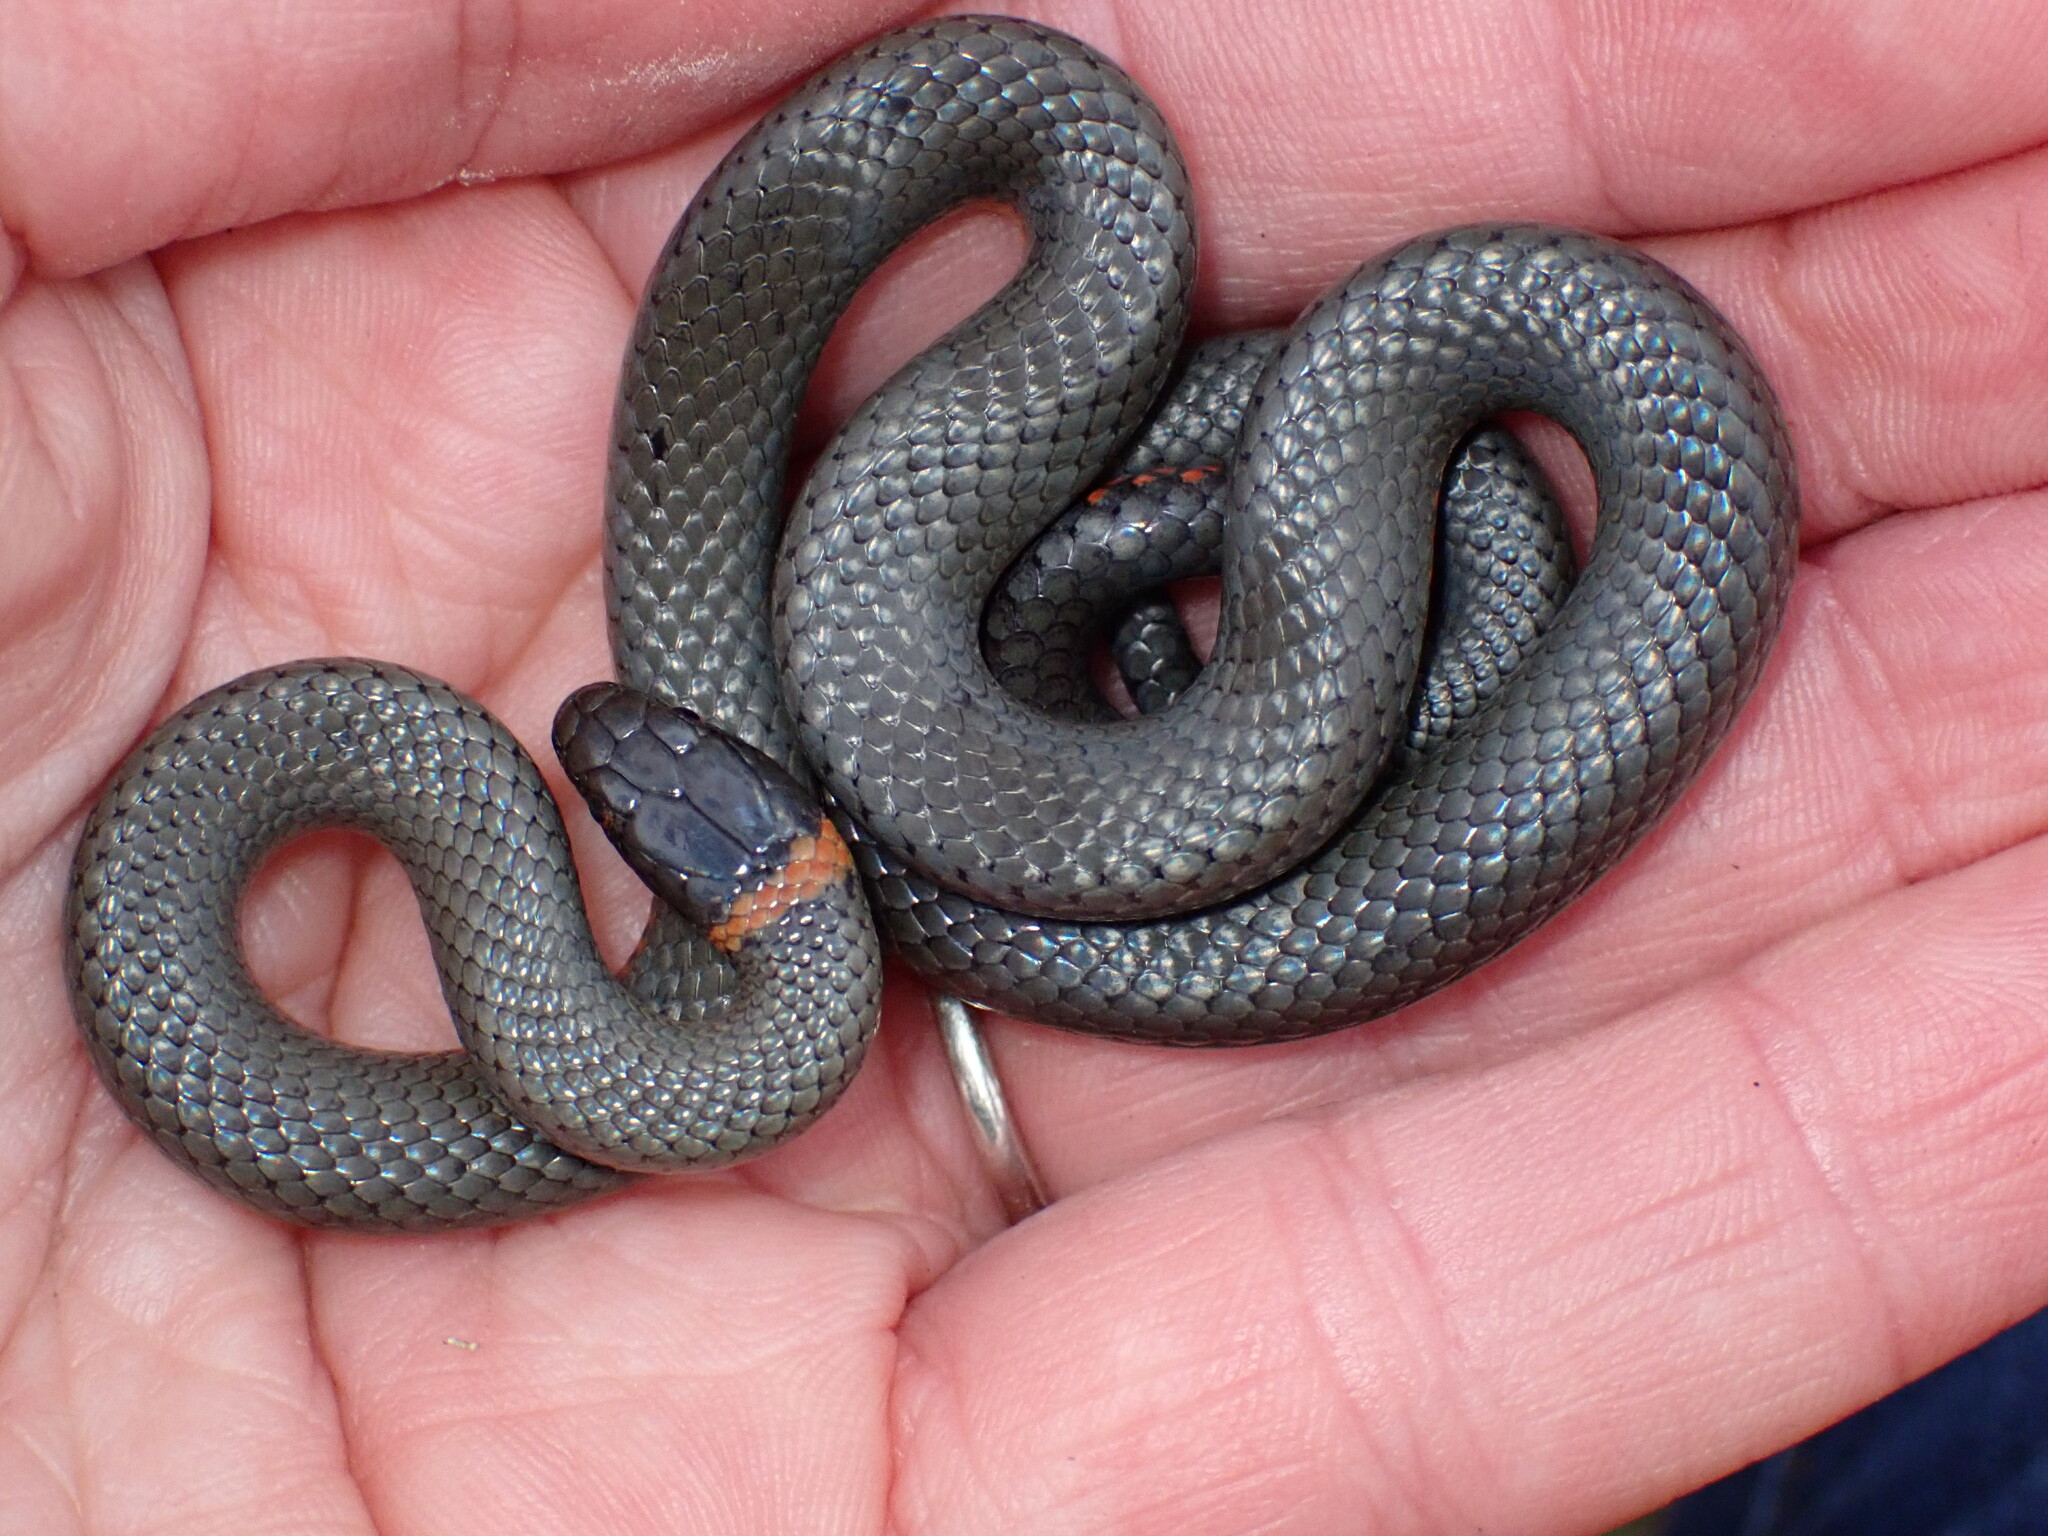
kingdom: Animalia
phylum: Chordata
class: Squamata
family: Colubridae
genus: Diadophis
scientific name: Diadophis punctatus
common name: Ringneck snake
